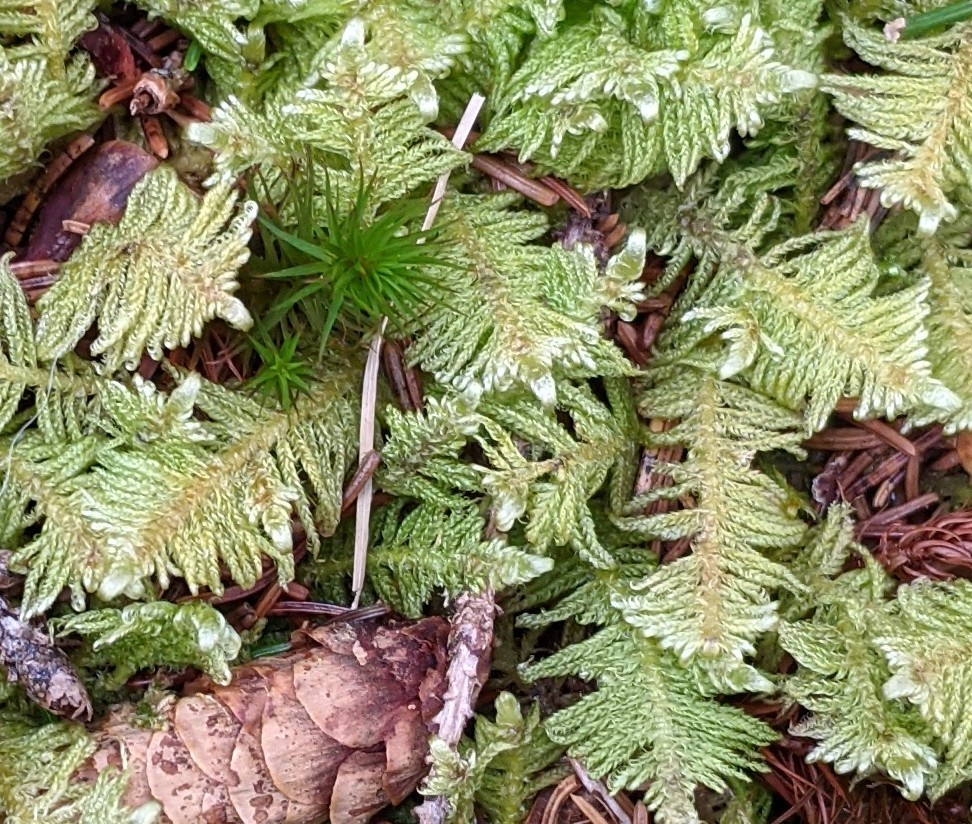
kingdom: Plantae
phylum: Bryophyta
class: Bryopsida
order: Hypnales
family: Pylaisiaceae
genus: Ptilium
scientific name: Ptilium crista-castrensis
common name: Knight's plume moss
